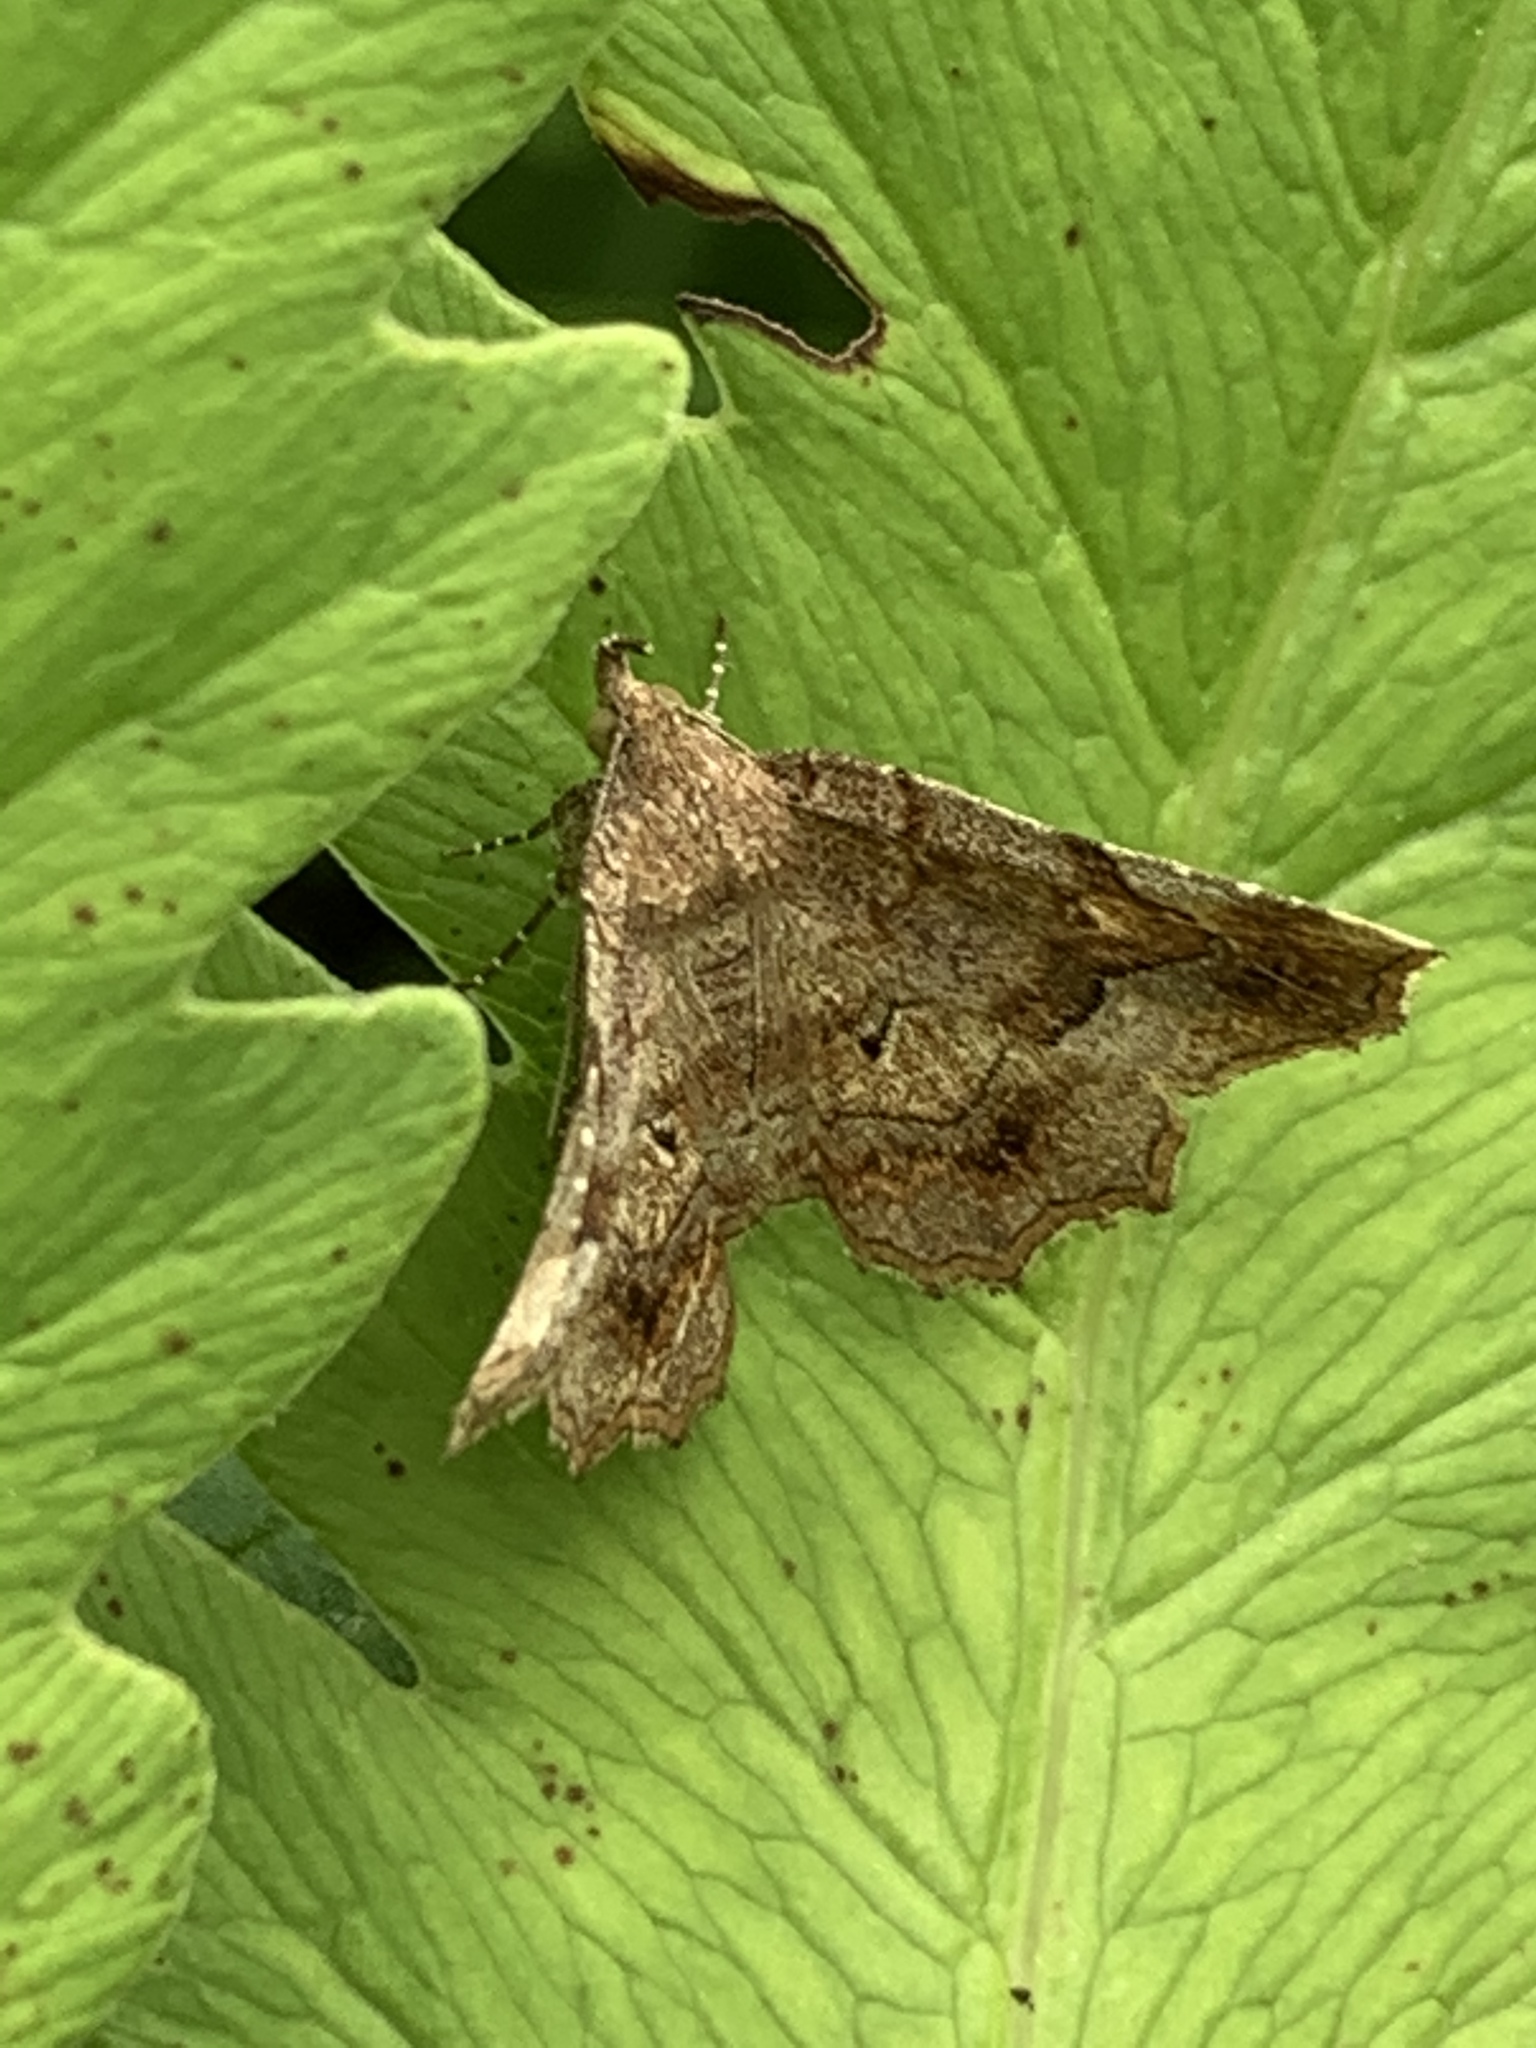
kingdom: Animalia
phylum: Arthropoda
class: Insecta
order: Lepidoptera
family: Erebidae
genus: Pangrapta
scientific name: Pangrapta decoralis
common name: Decorated owlet
